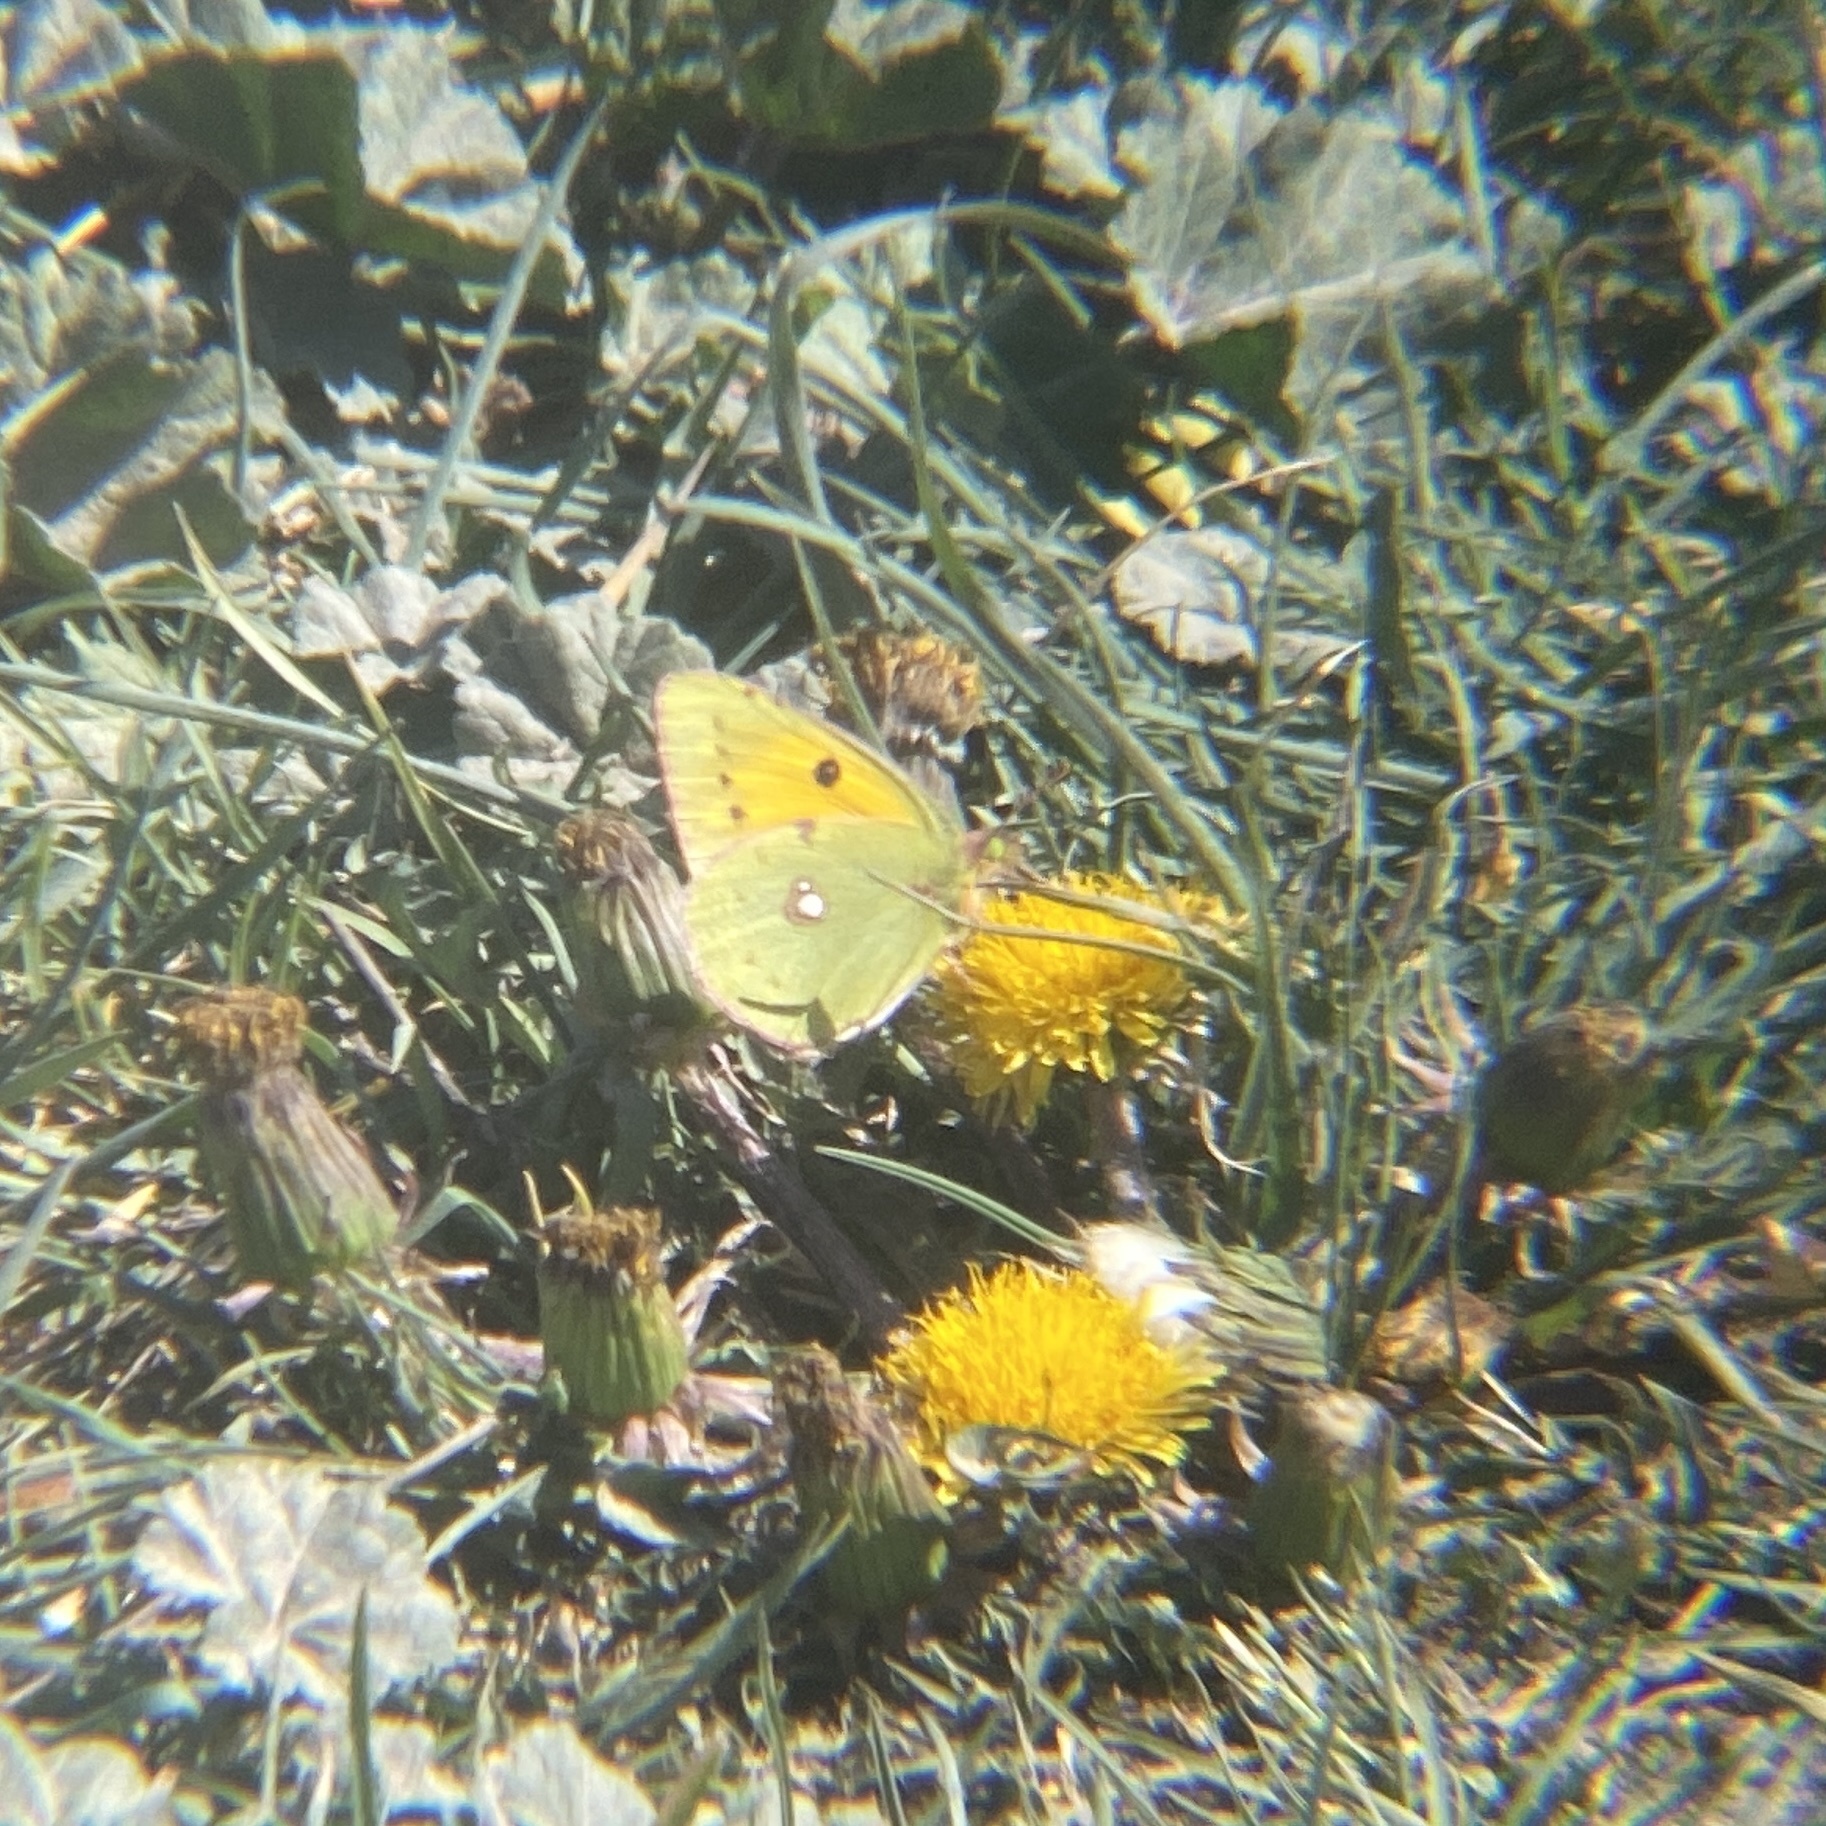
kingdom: Animalia
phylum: Arthropoda
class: Insecta
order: Lepidoptera
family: Pieridae
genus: Colias
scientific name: Colias croceus
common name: Clouded yellow
